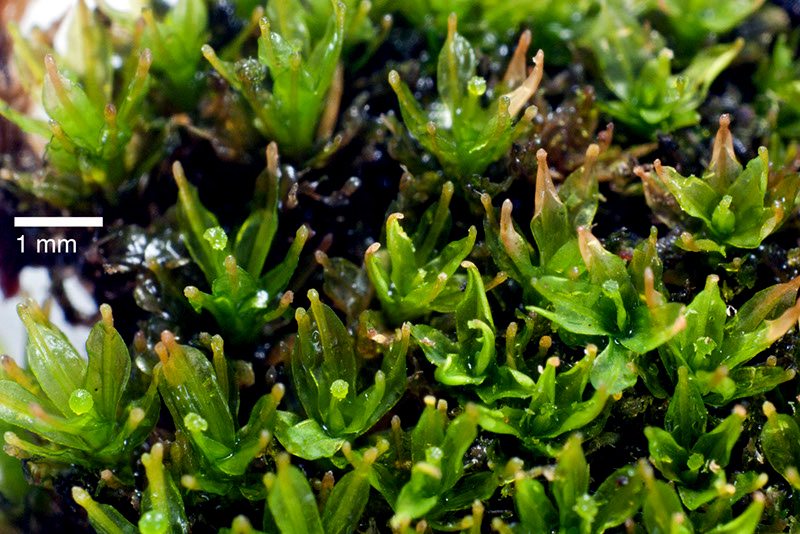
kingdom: Plantae
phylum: Bryophyta
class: Bryopsida
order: Dicranales
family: Calymperaceae
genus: Calymperes
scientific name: Calymperes tenerum
